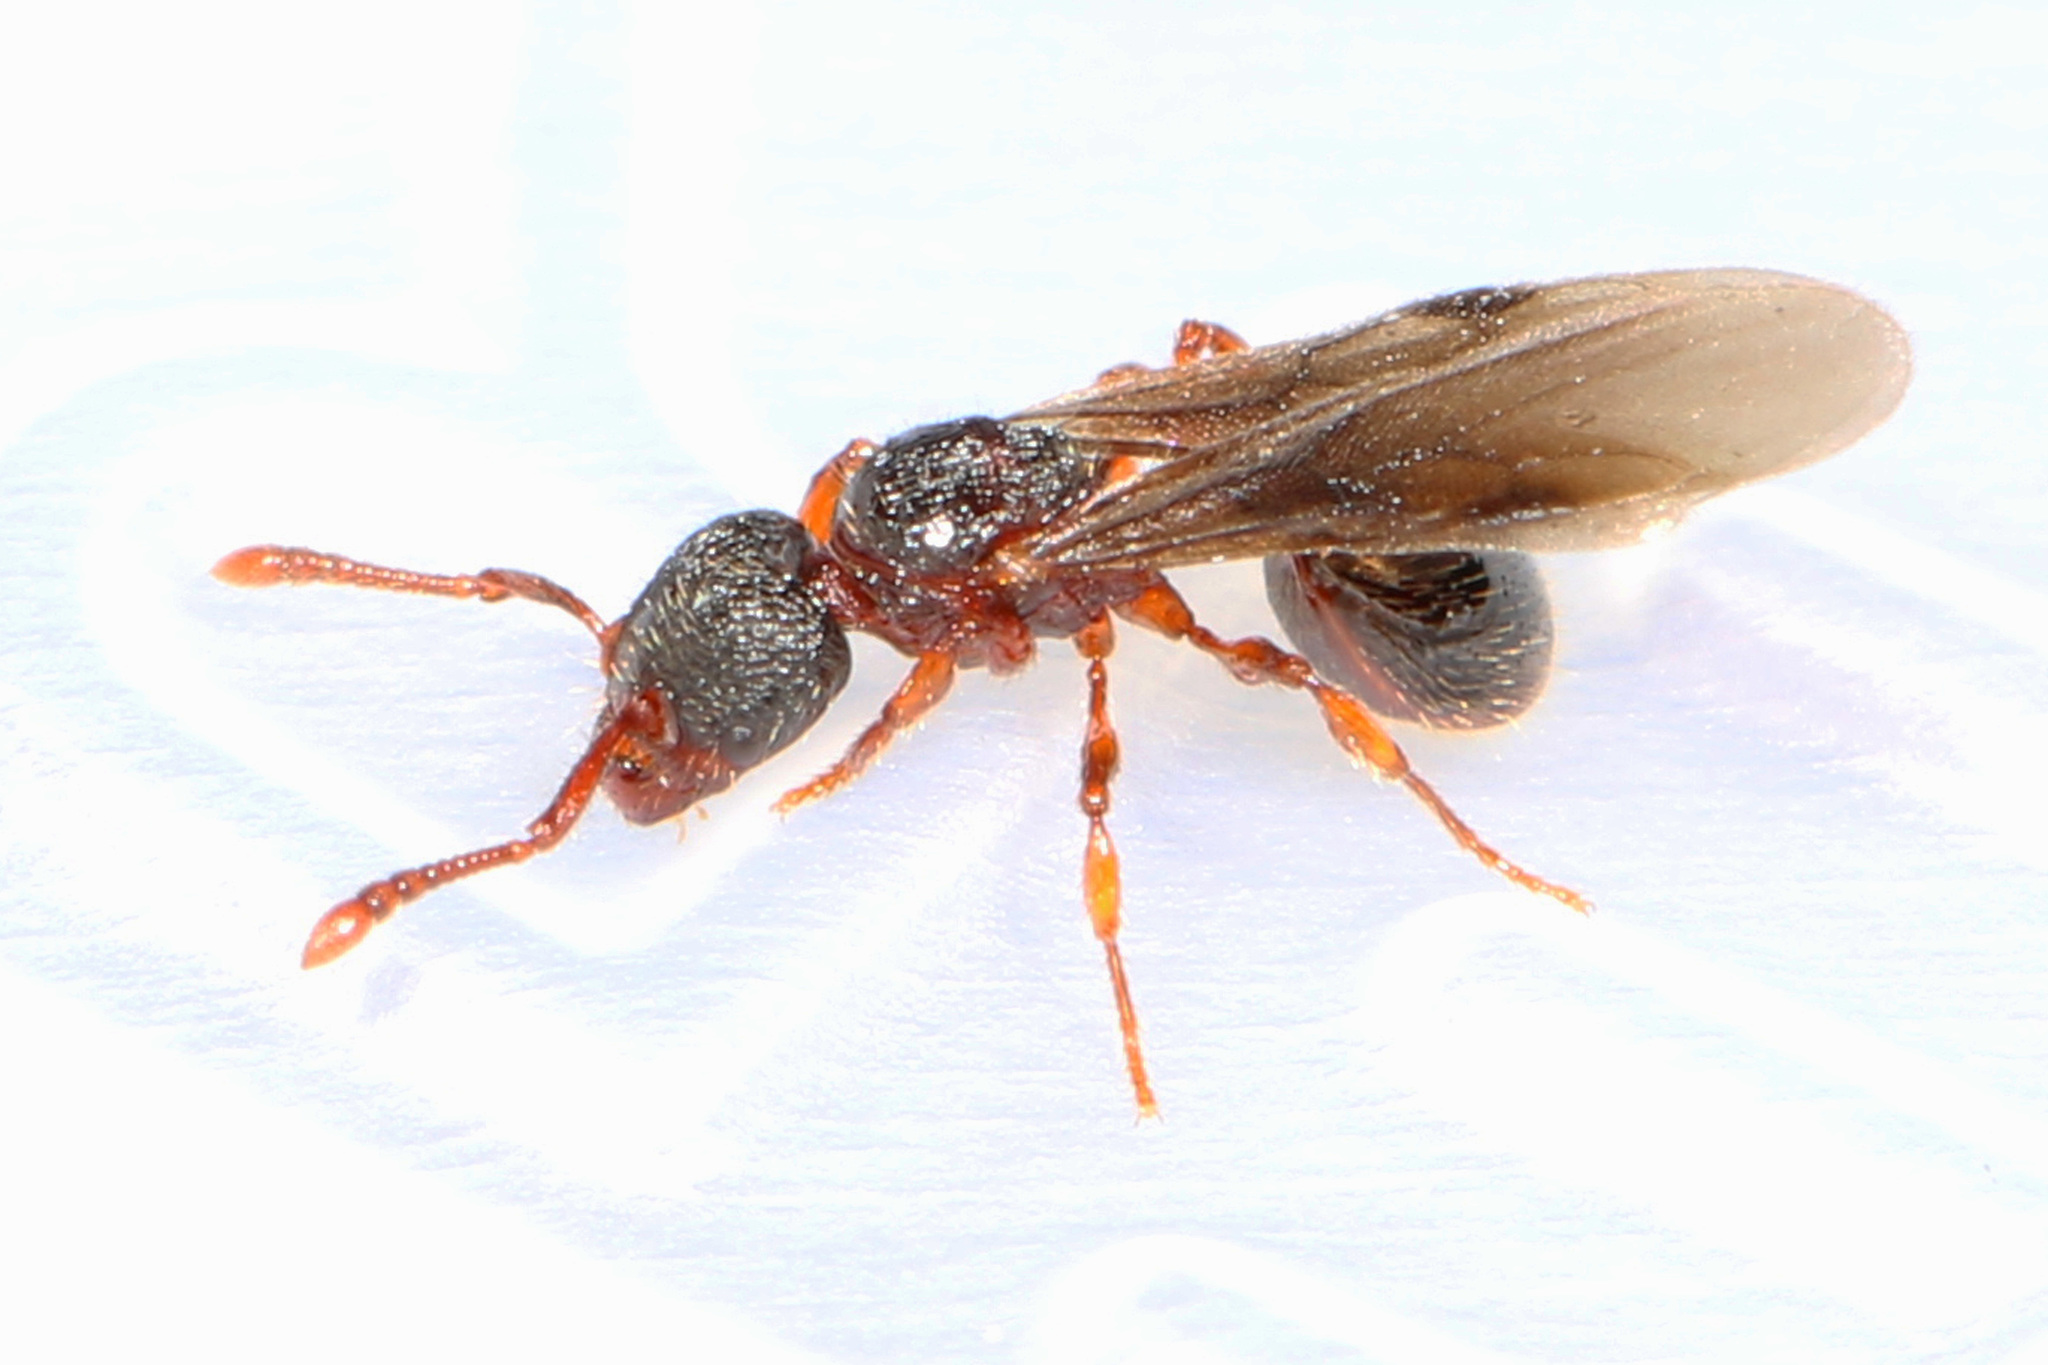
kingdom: Animalia
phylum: Arthropoda
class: Insecta
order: Hymenoptera
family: Formicidae
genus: Myrmecina
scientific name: Myrmecina americana
